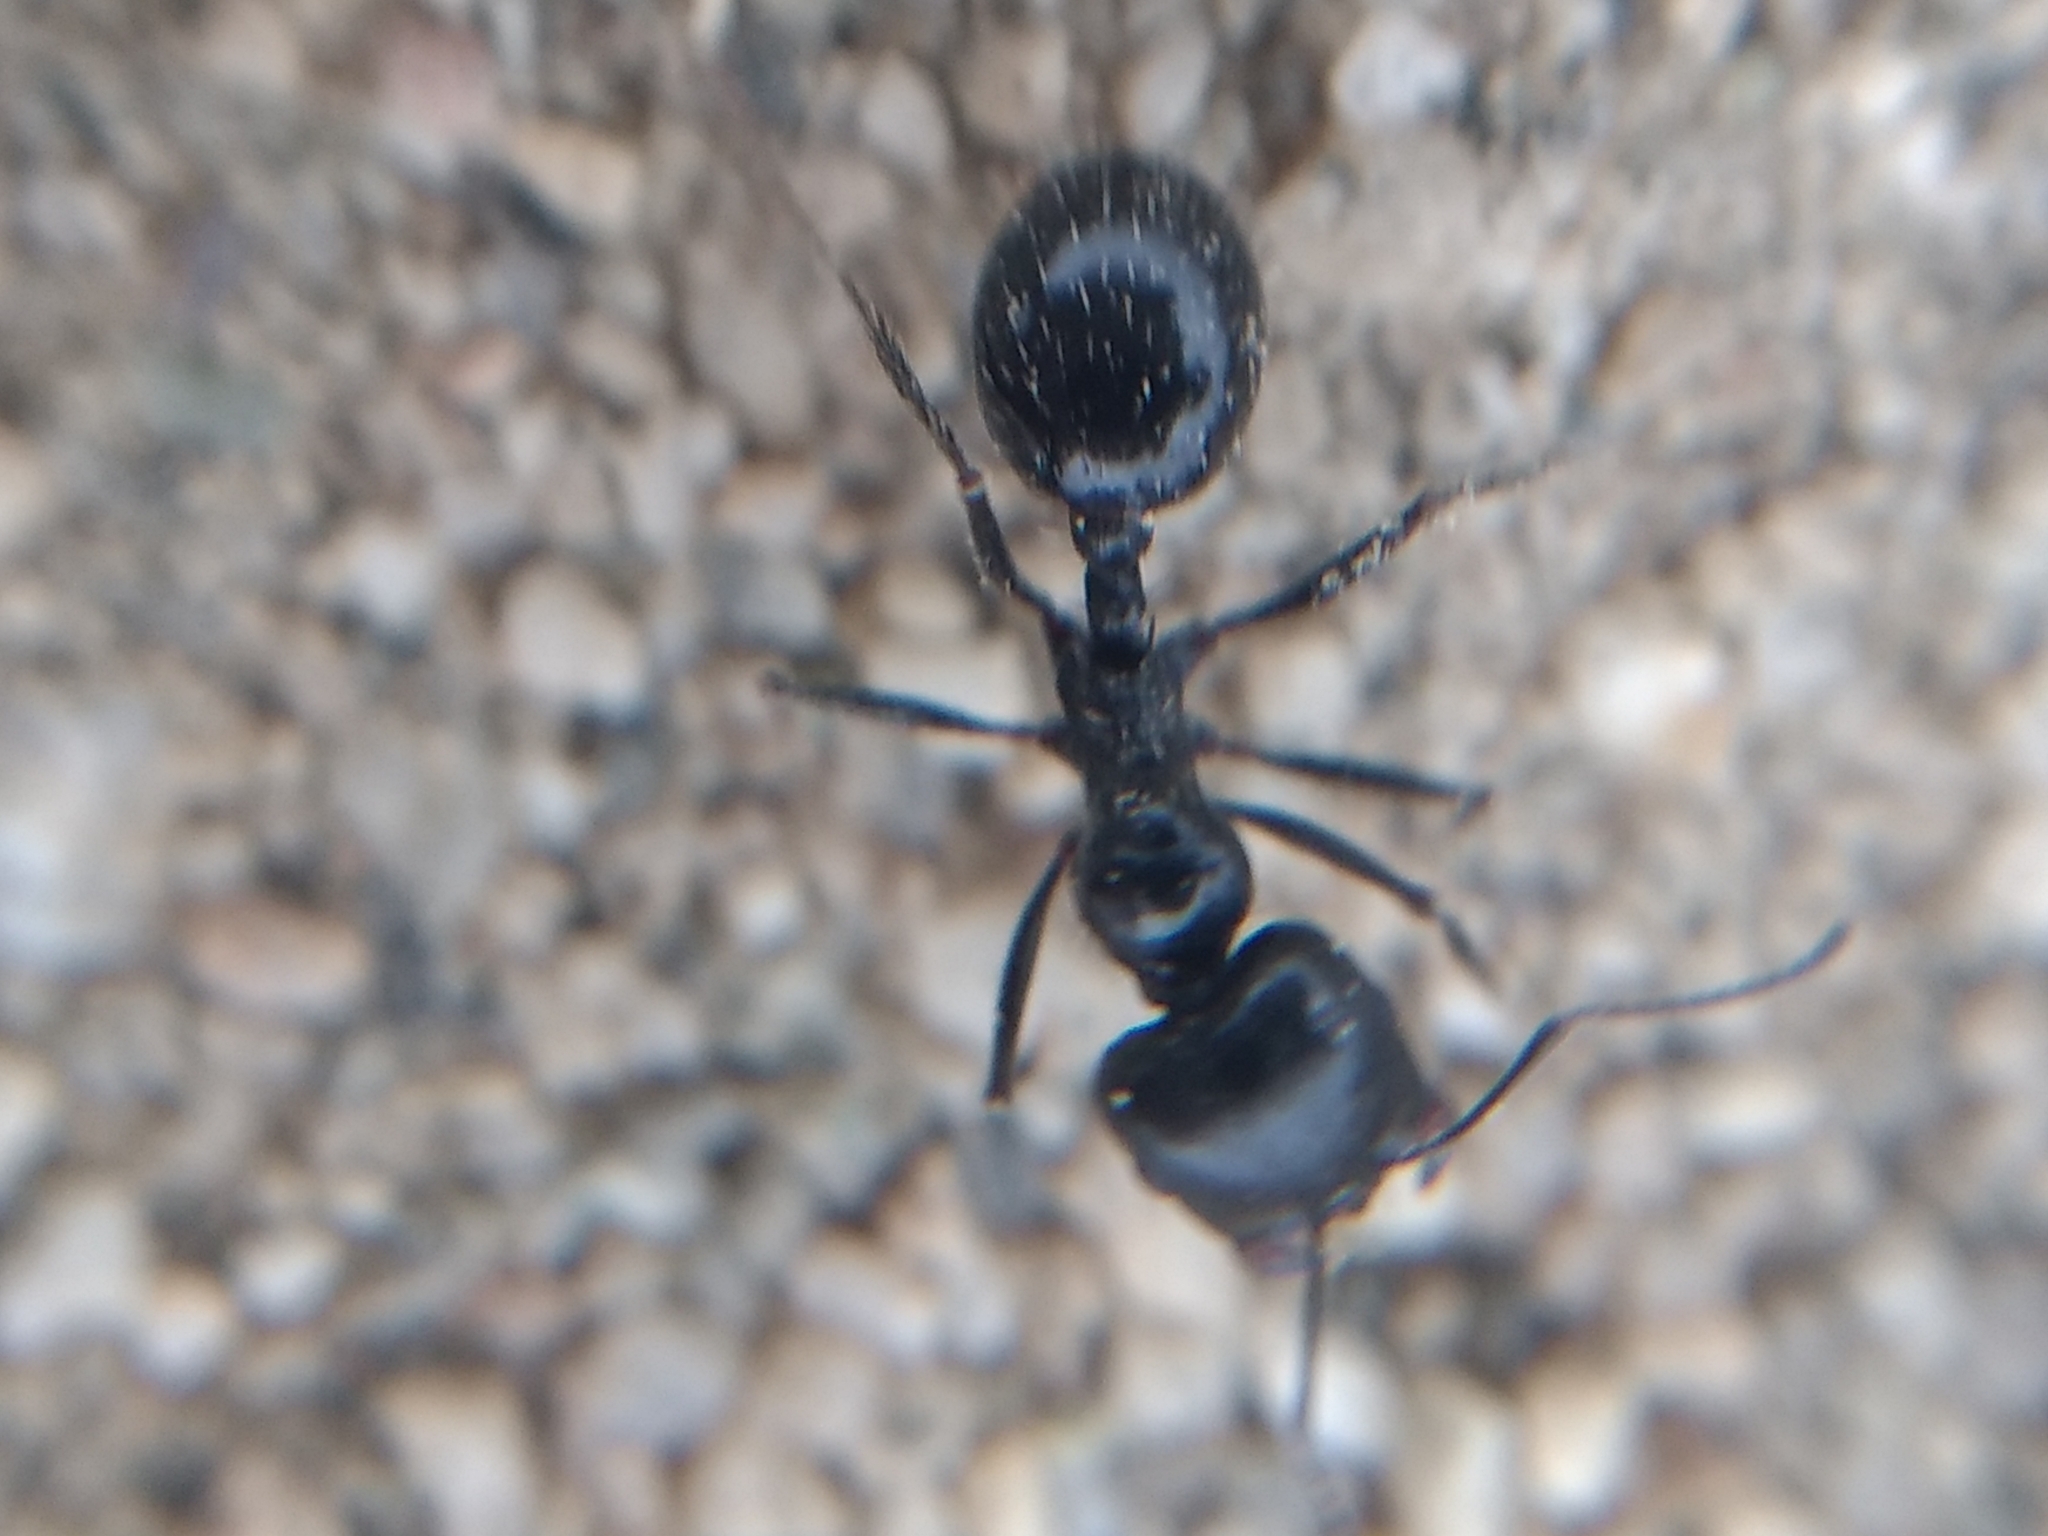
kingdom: Animalia
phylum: Arthropoda
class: Insecta
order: Hymenoptera
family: Formicidae
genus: Messor
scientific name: Messor pergandei
